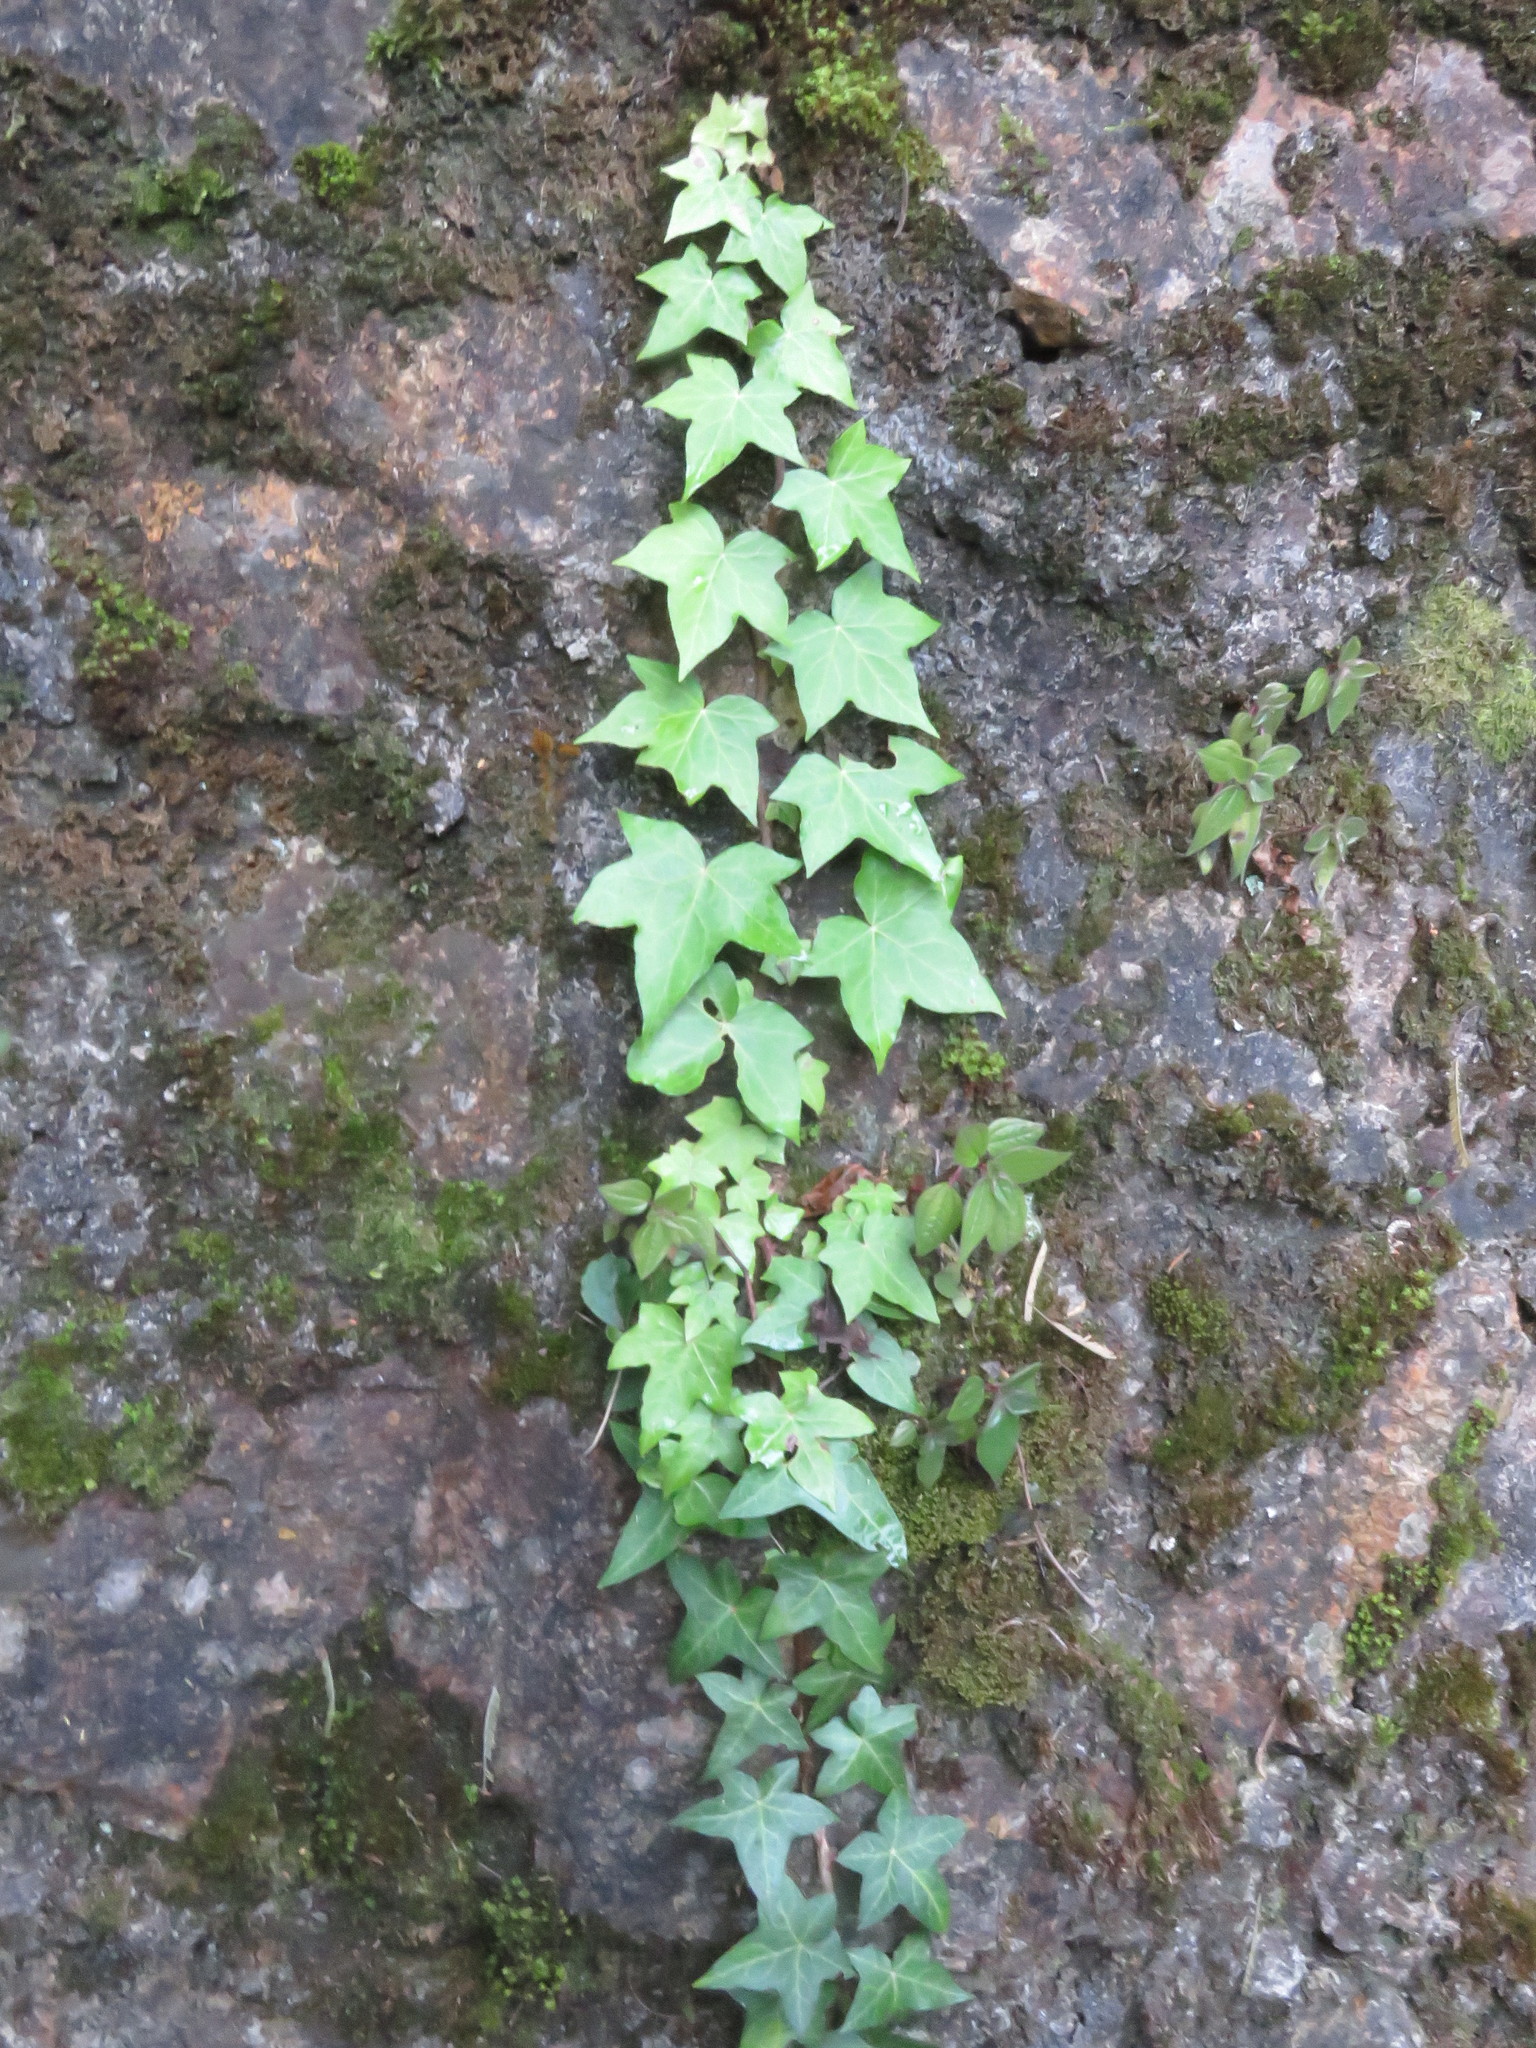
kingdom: Plantae
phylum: Tracheophyta
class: Magnoliopsida
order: Apiales
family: Araliaceae
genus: Hedera
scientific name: Hedera helix
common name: Ivy
